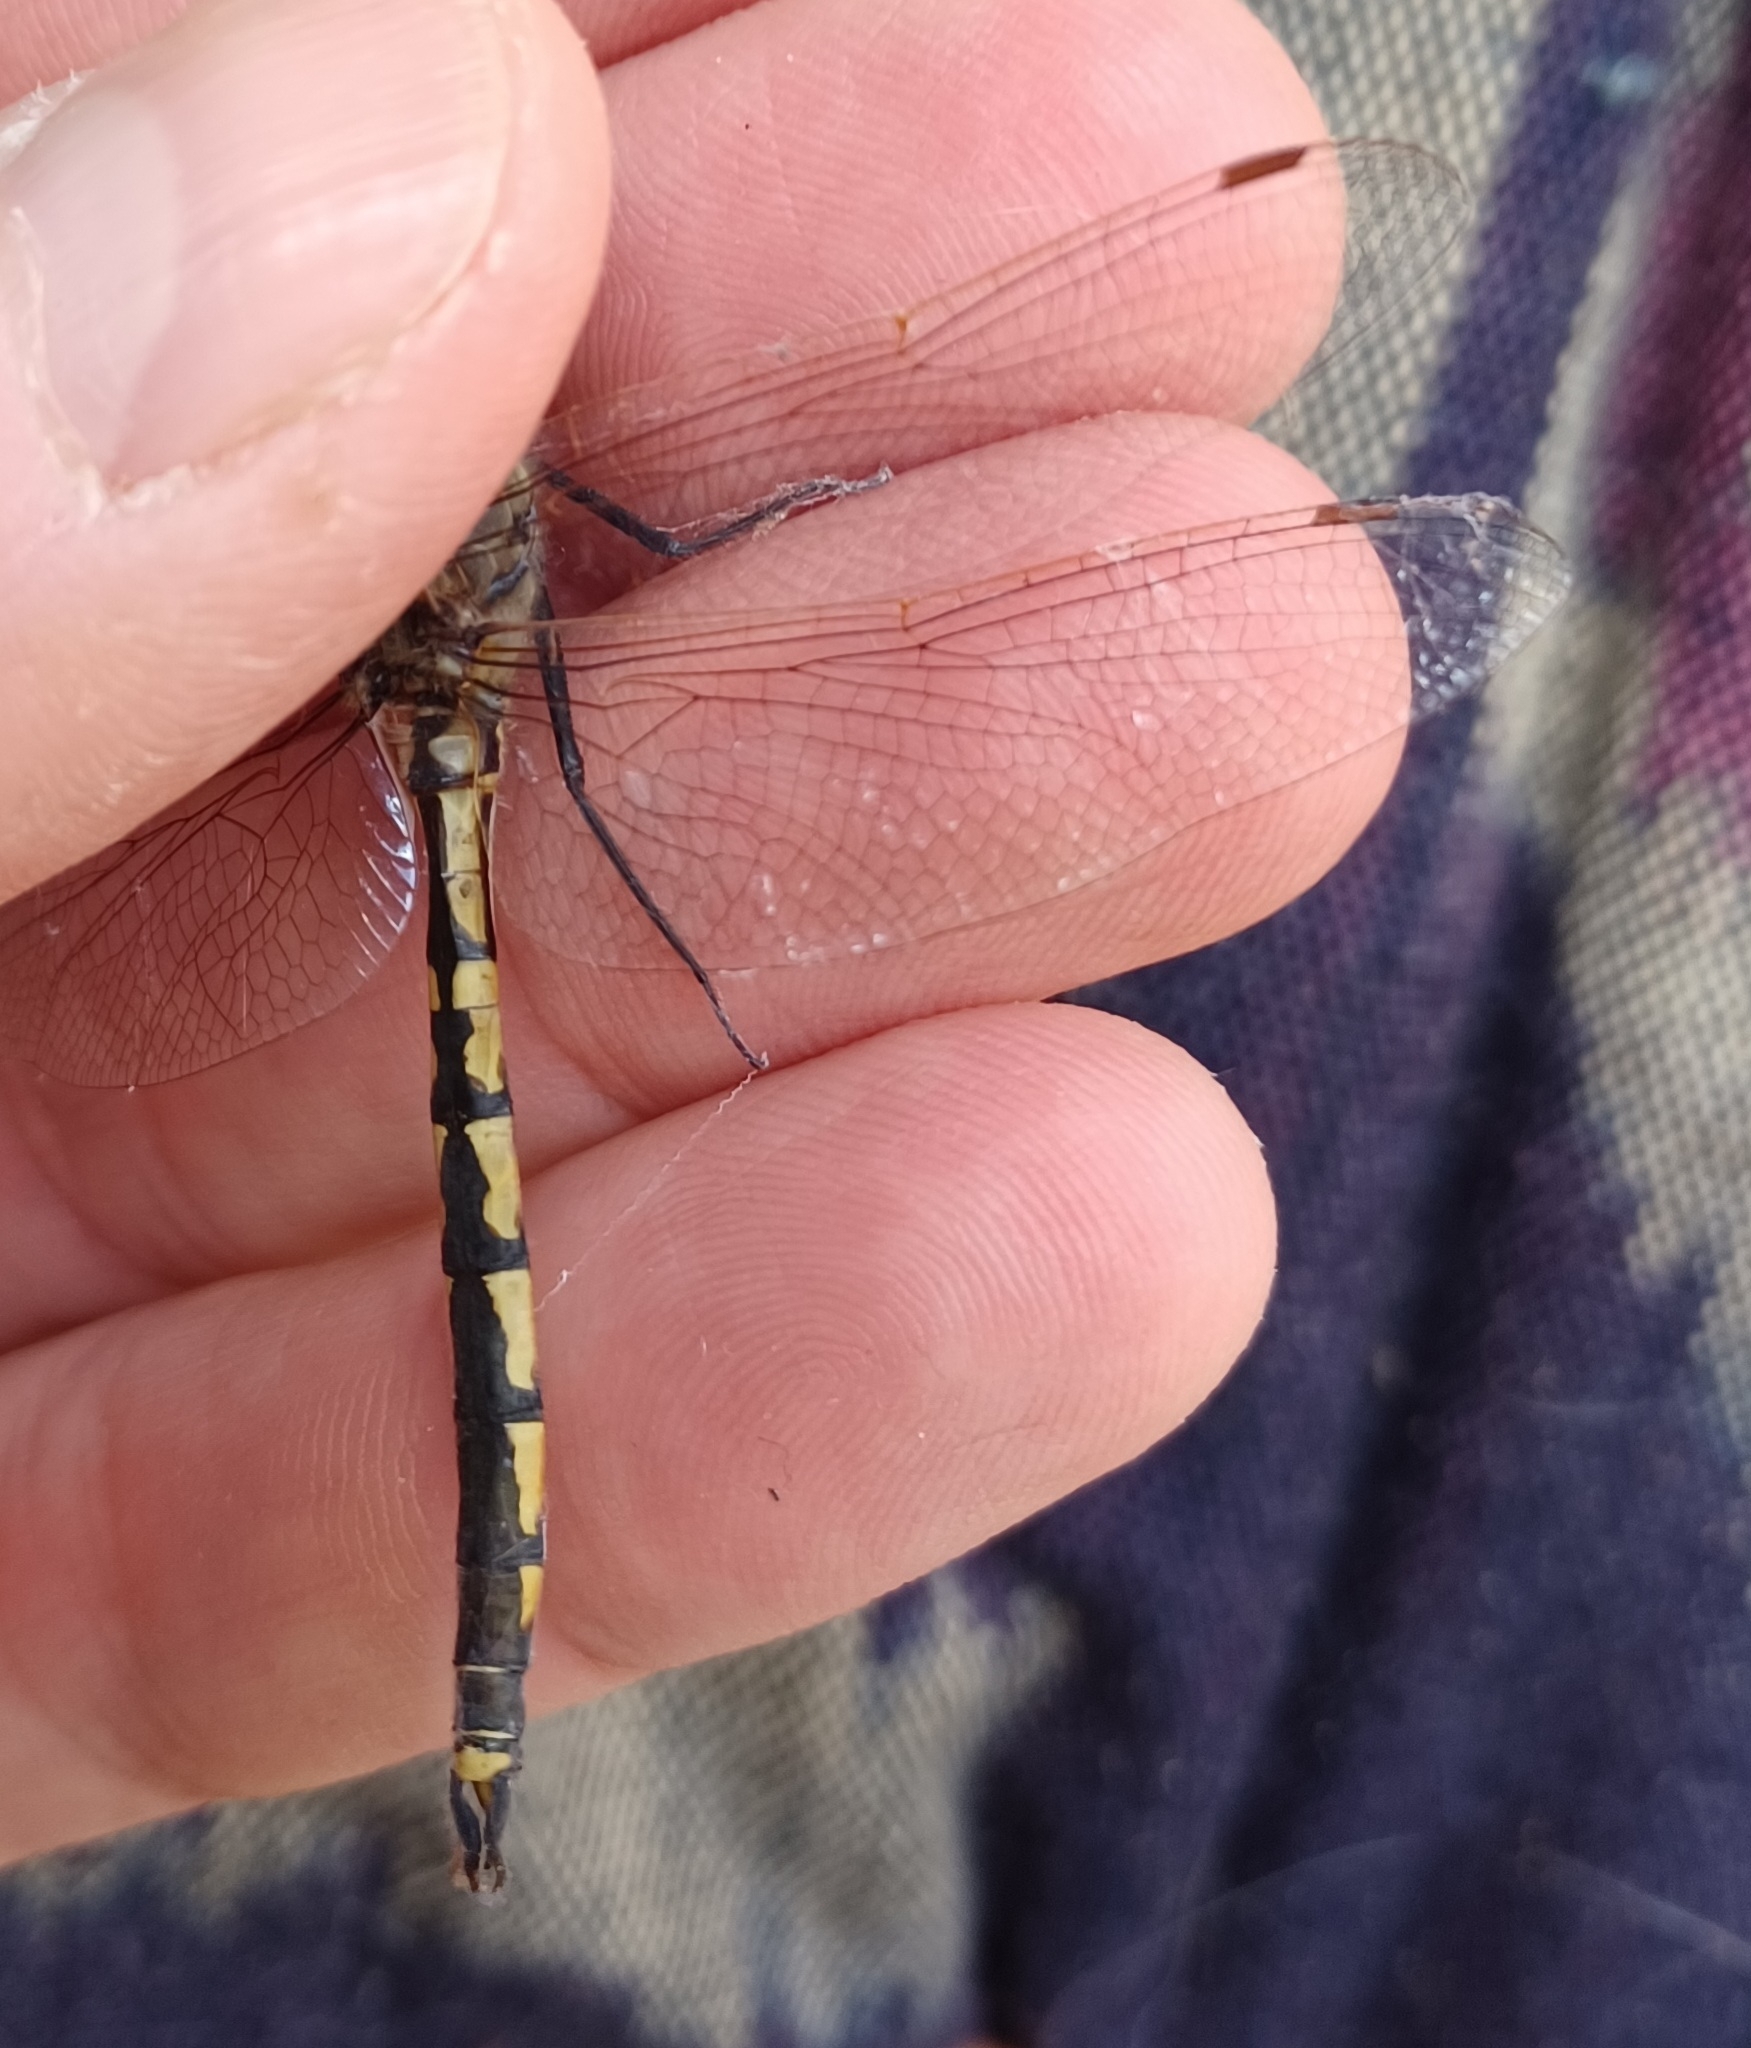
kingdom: Animalia
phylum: Arthropoda
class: Insecta
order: Odonata
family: Corduliidae
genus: Hemicordulia
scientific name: Hemicordulia tau
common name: Tau emerald
